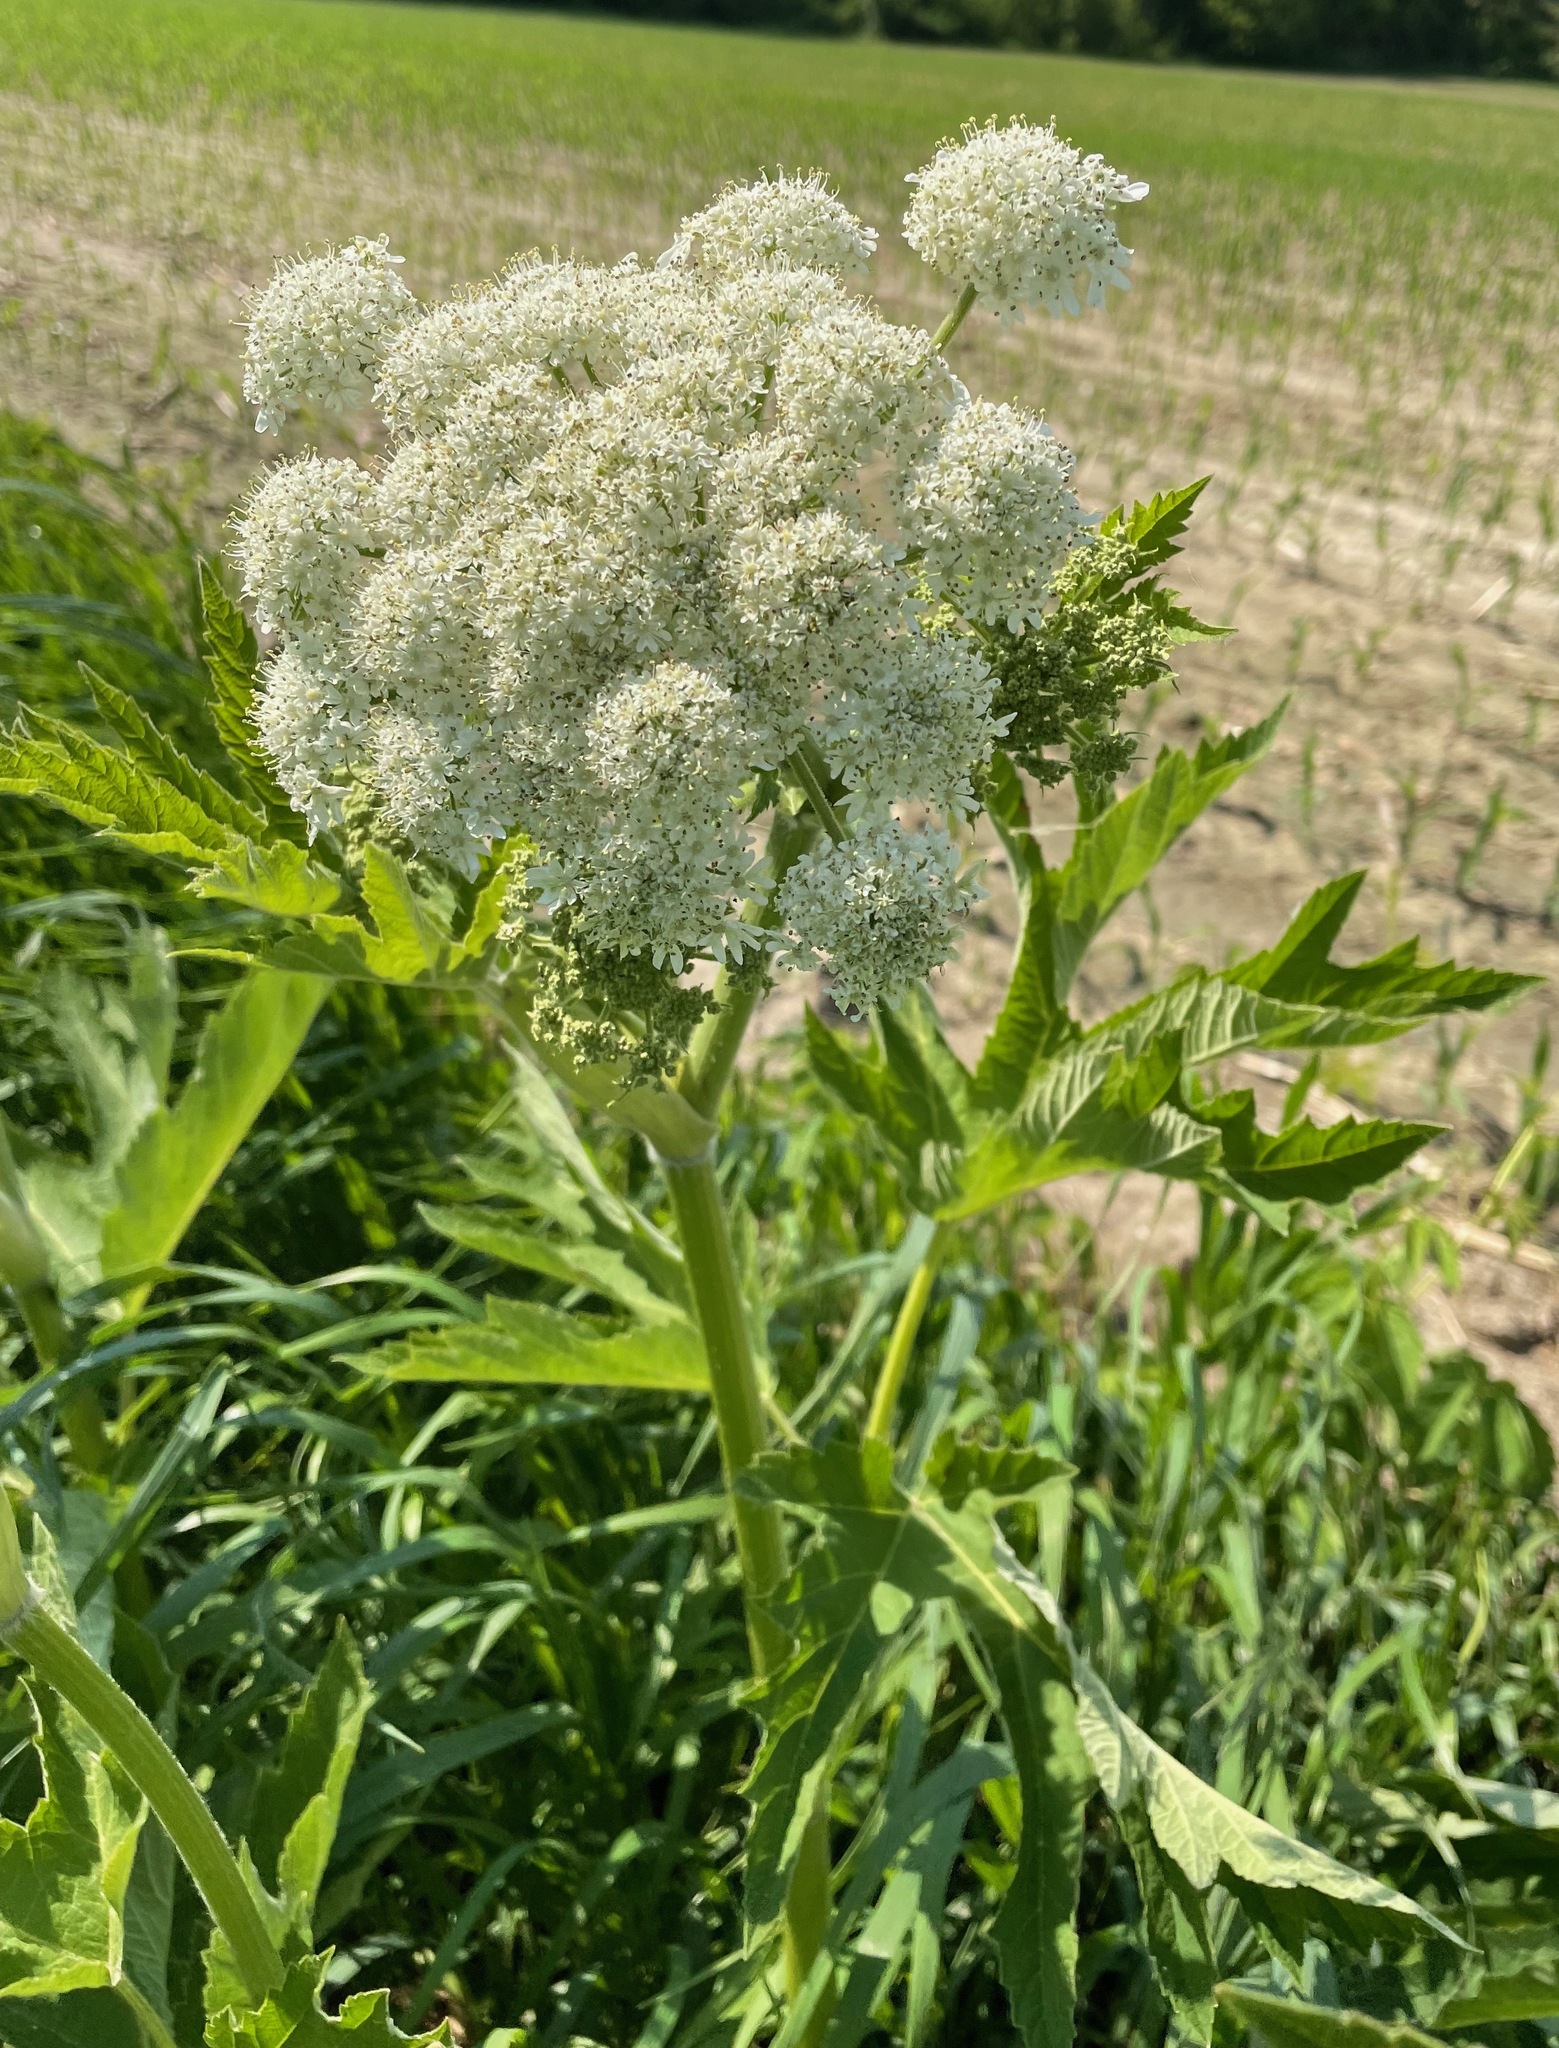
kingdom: Plantae
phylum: Tracheophyta
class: Magnoliopsida
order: Apiales
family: Apiaceae
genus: Heracleum
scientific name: Heracleum maximum
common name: American cow parsnip
